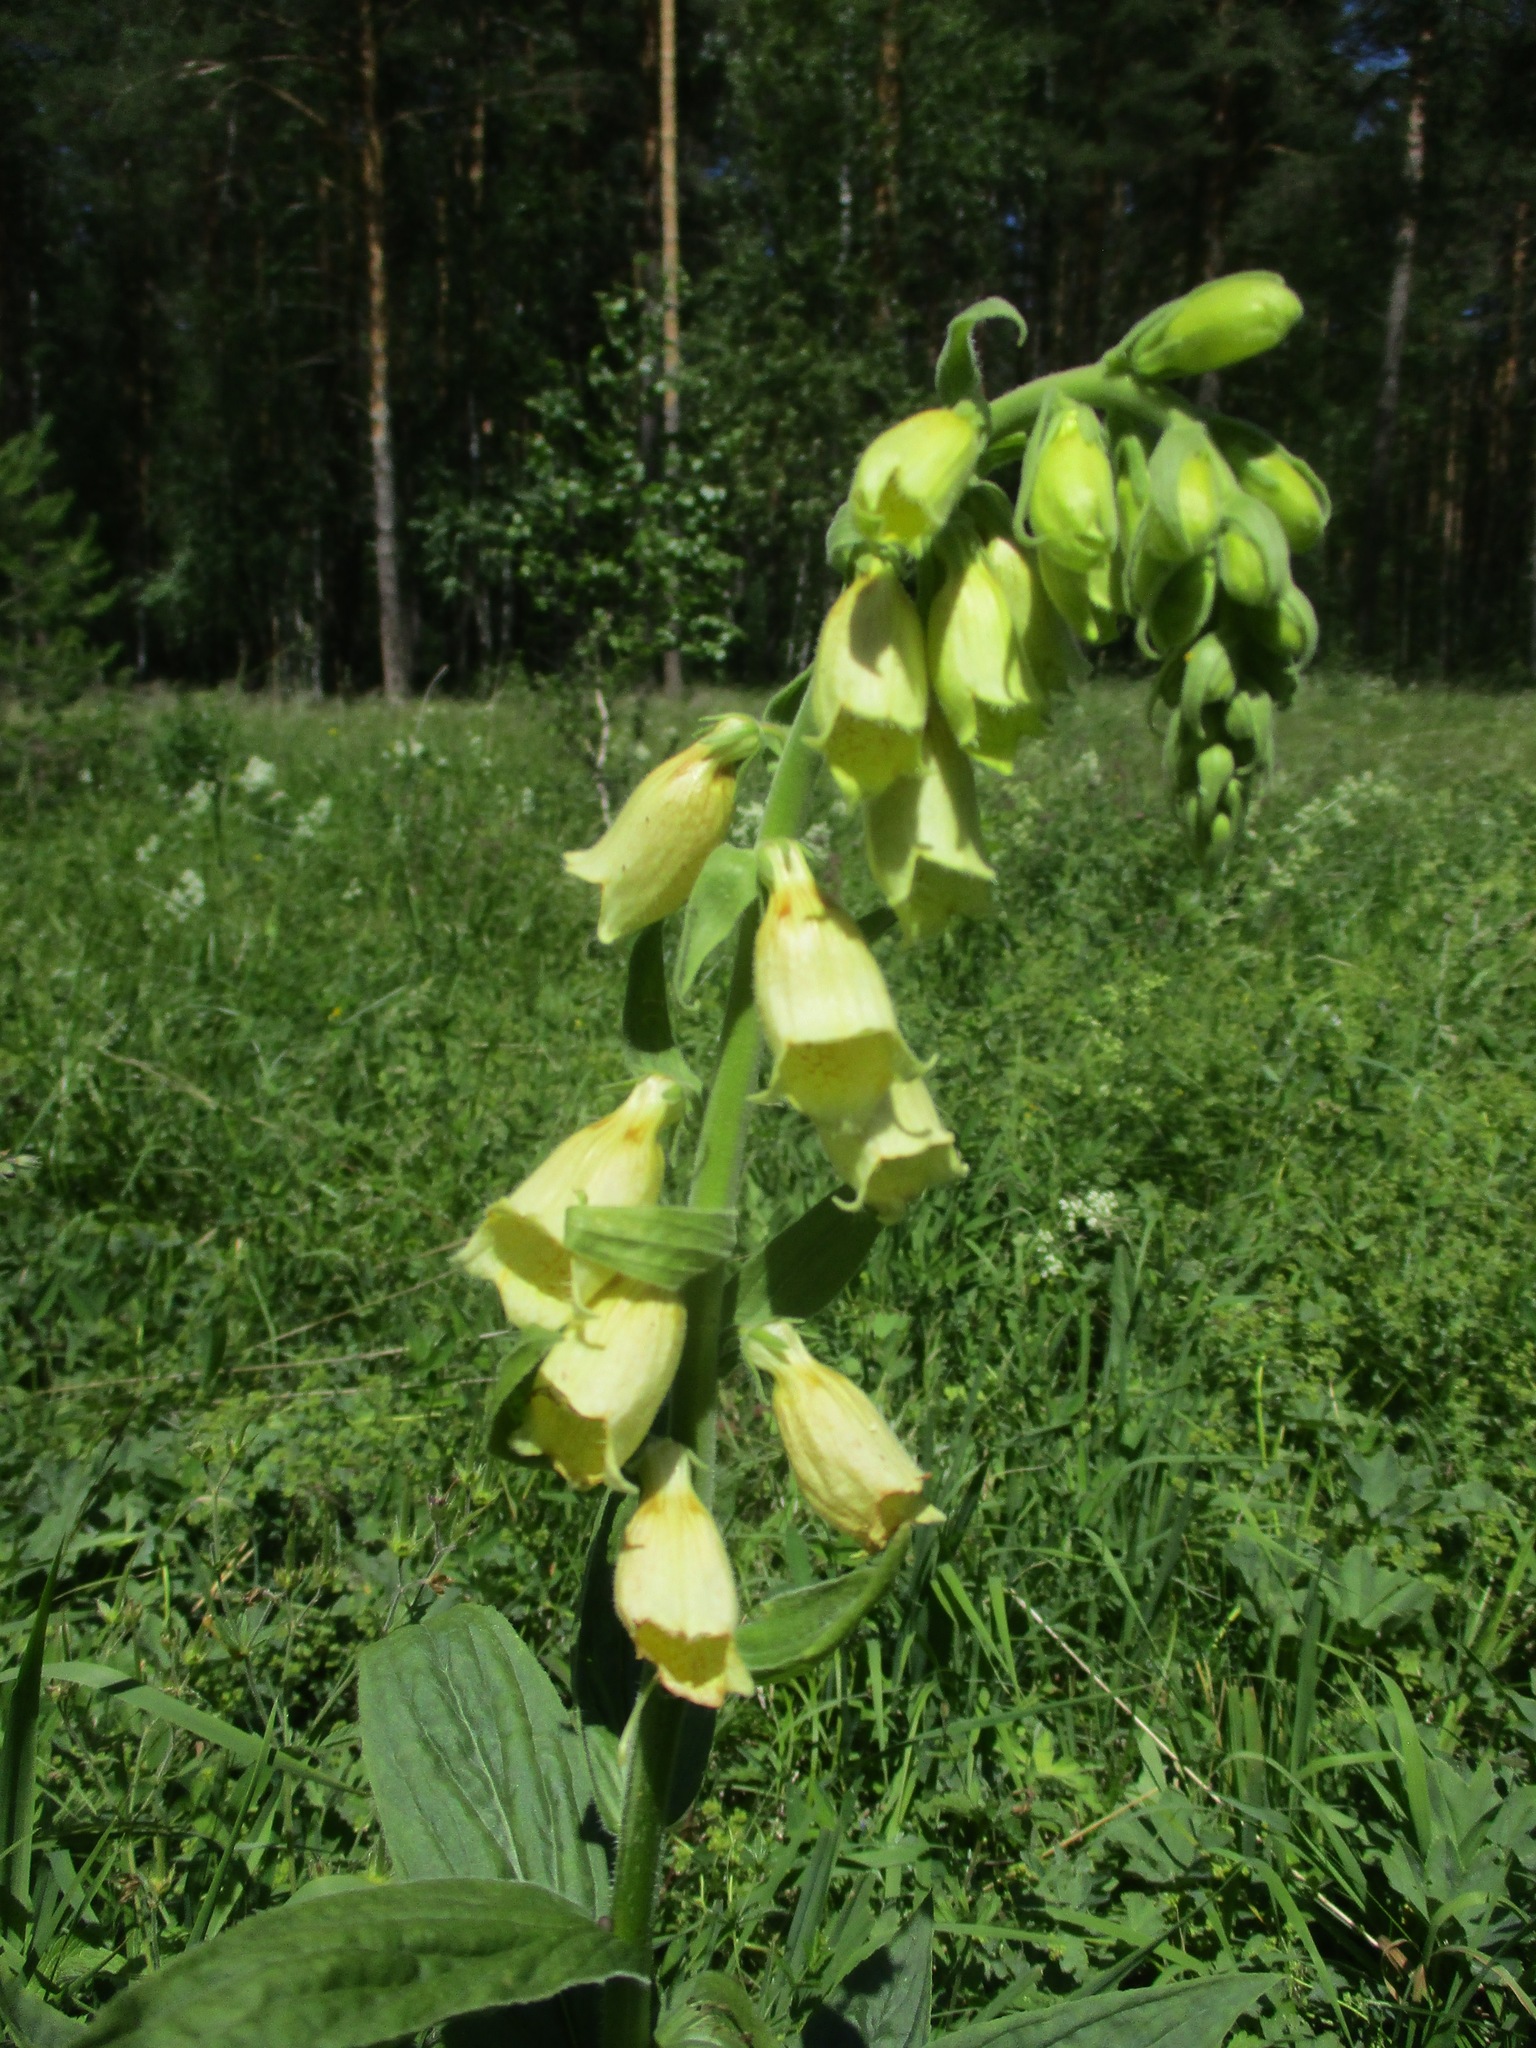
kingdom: Plantae
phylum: Tracheophyta
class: Magnoliopsida
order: Lamiales
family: Plantaginaceae
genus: Digitalis
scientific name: Digitalis grandiflora
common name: Yellow foxglove
